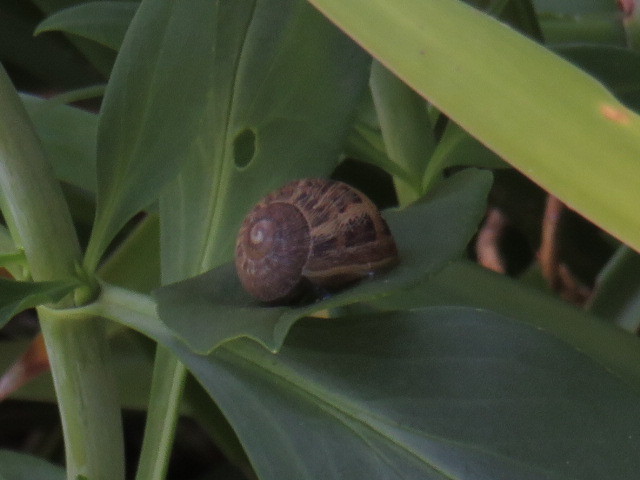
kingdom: Animalia
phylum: Mollusca
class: Gastropoda
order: Stylommatophora
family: Helicidae
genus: Cornu
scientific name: Cornu aspersum
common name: Brown garden snail
